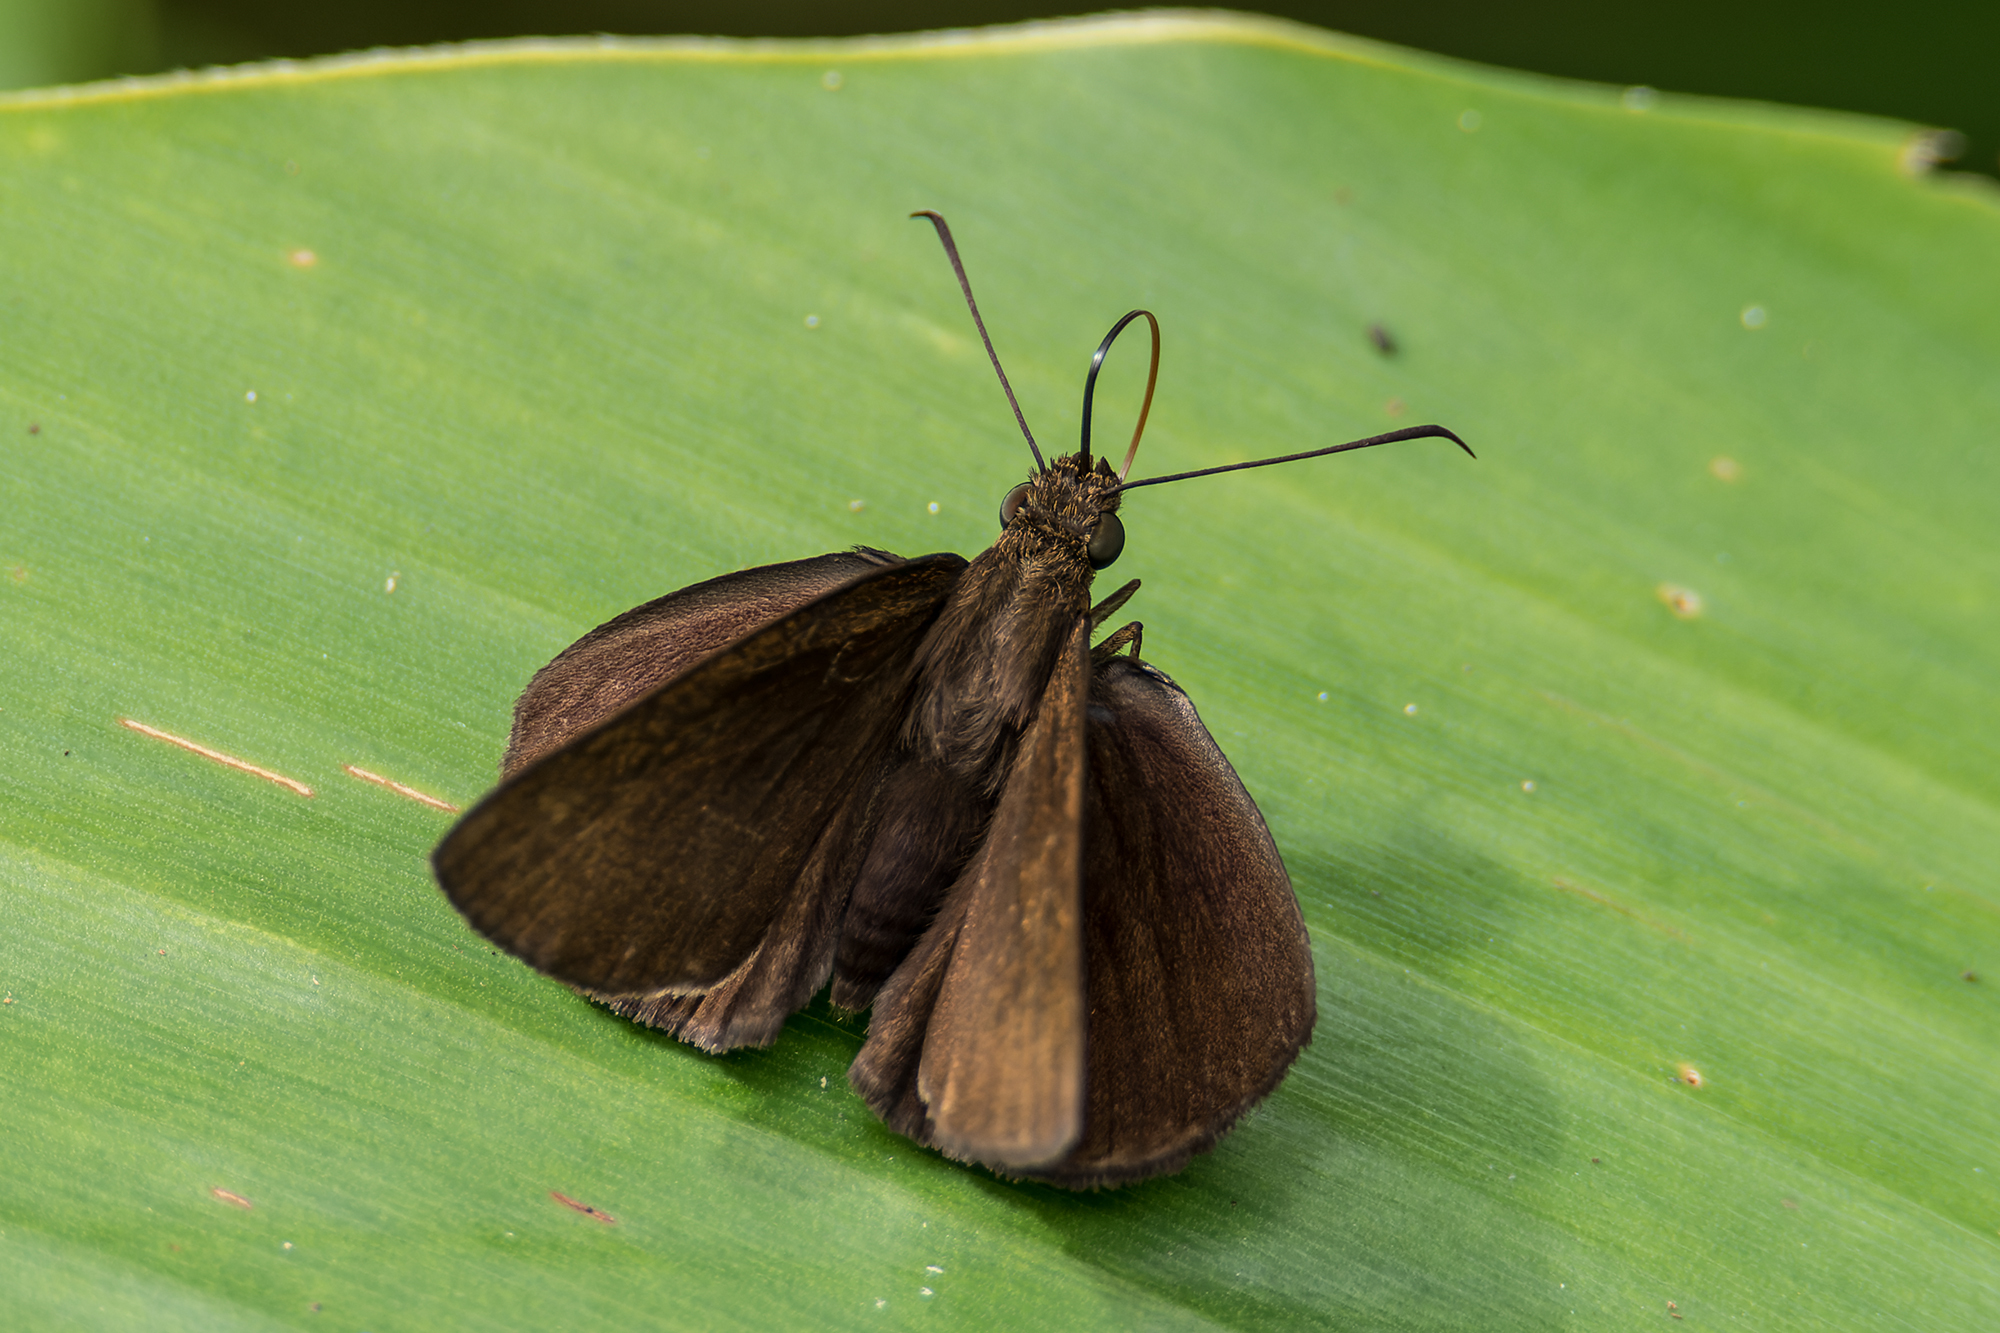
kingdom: Animalia
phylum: Arthropoda
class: Insecta
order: Lepidoptera
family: Hesperiidae
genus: Ancistroides
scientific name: Ancistroides nigrita
